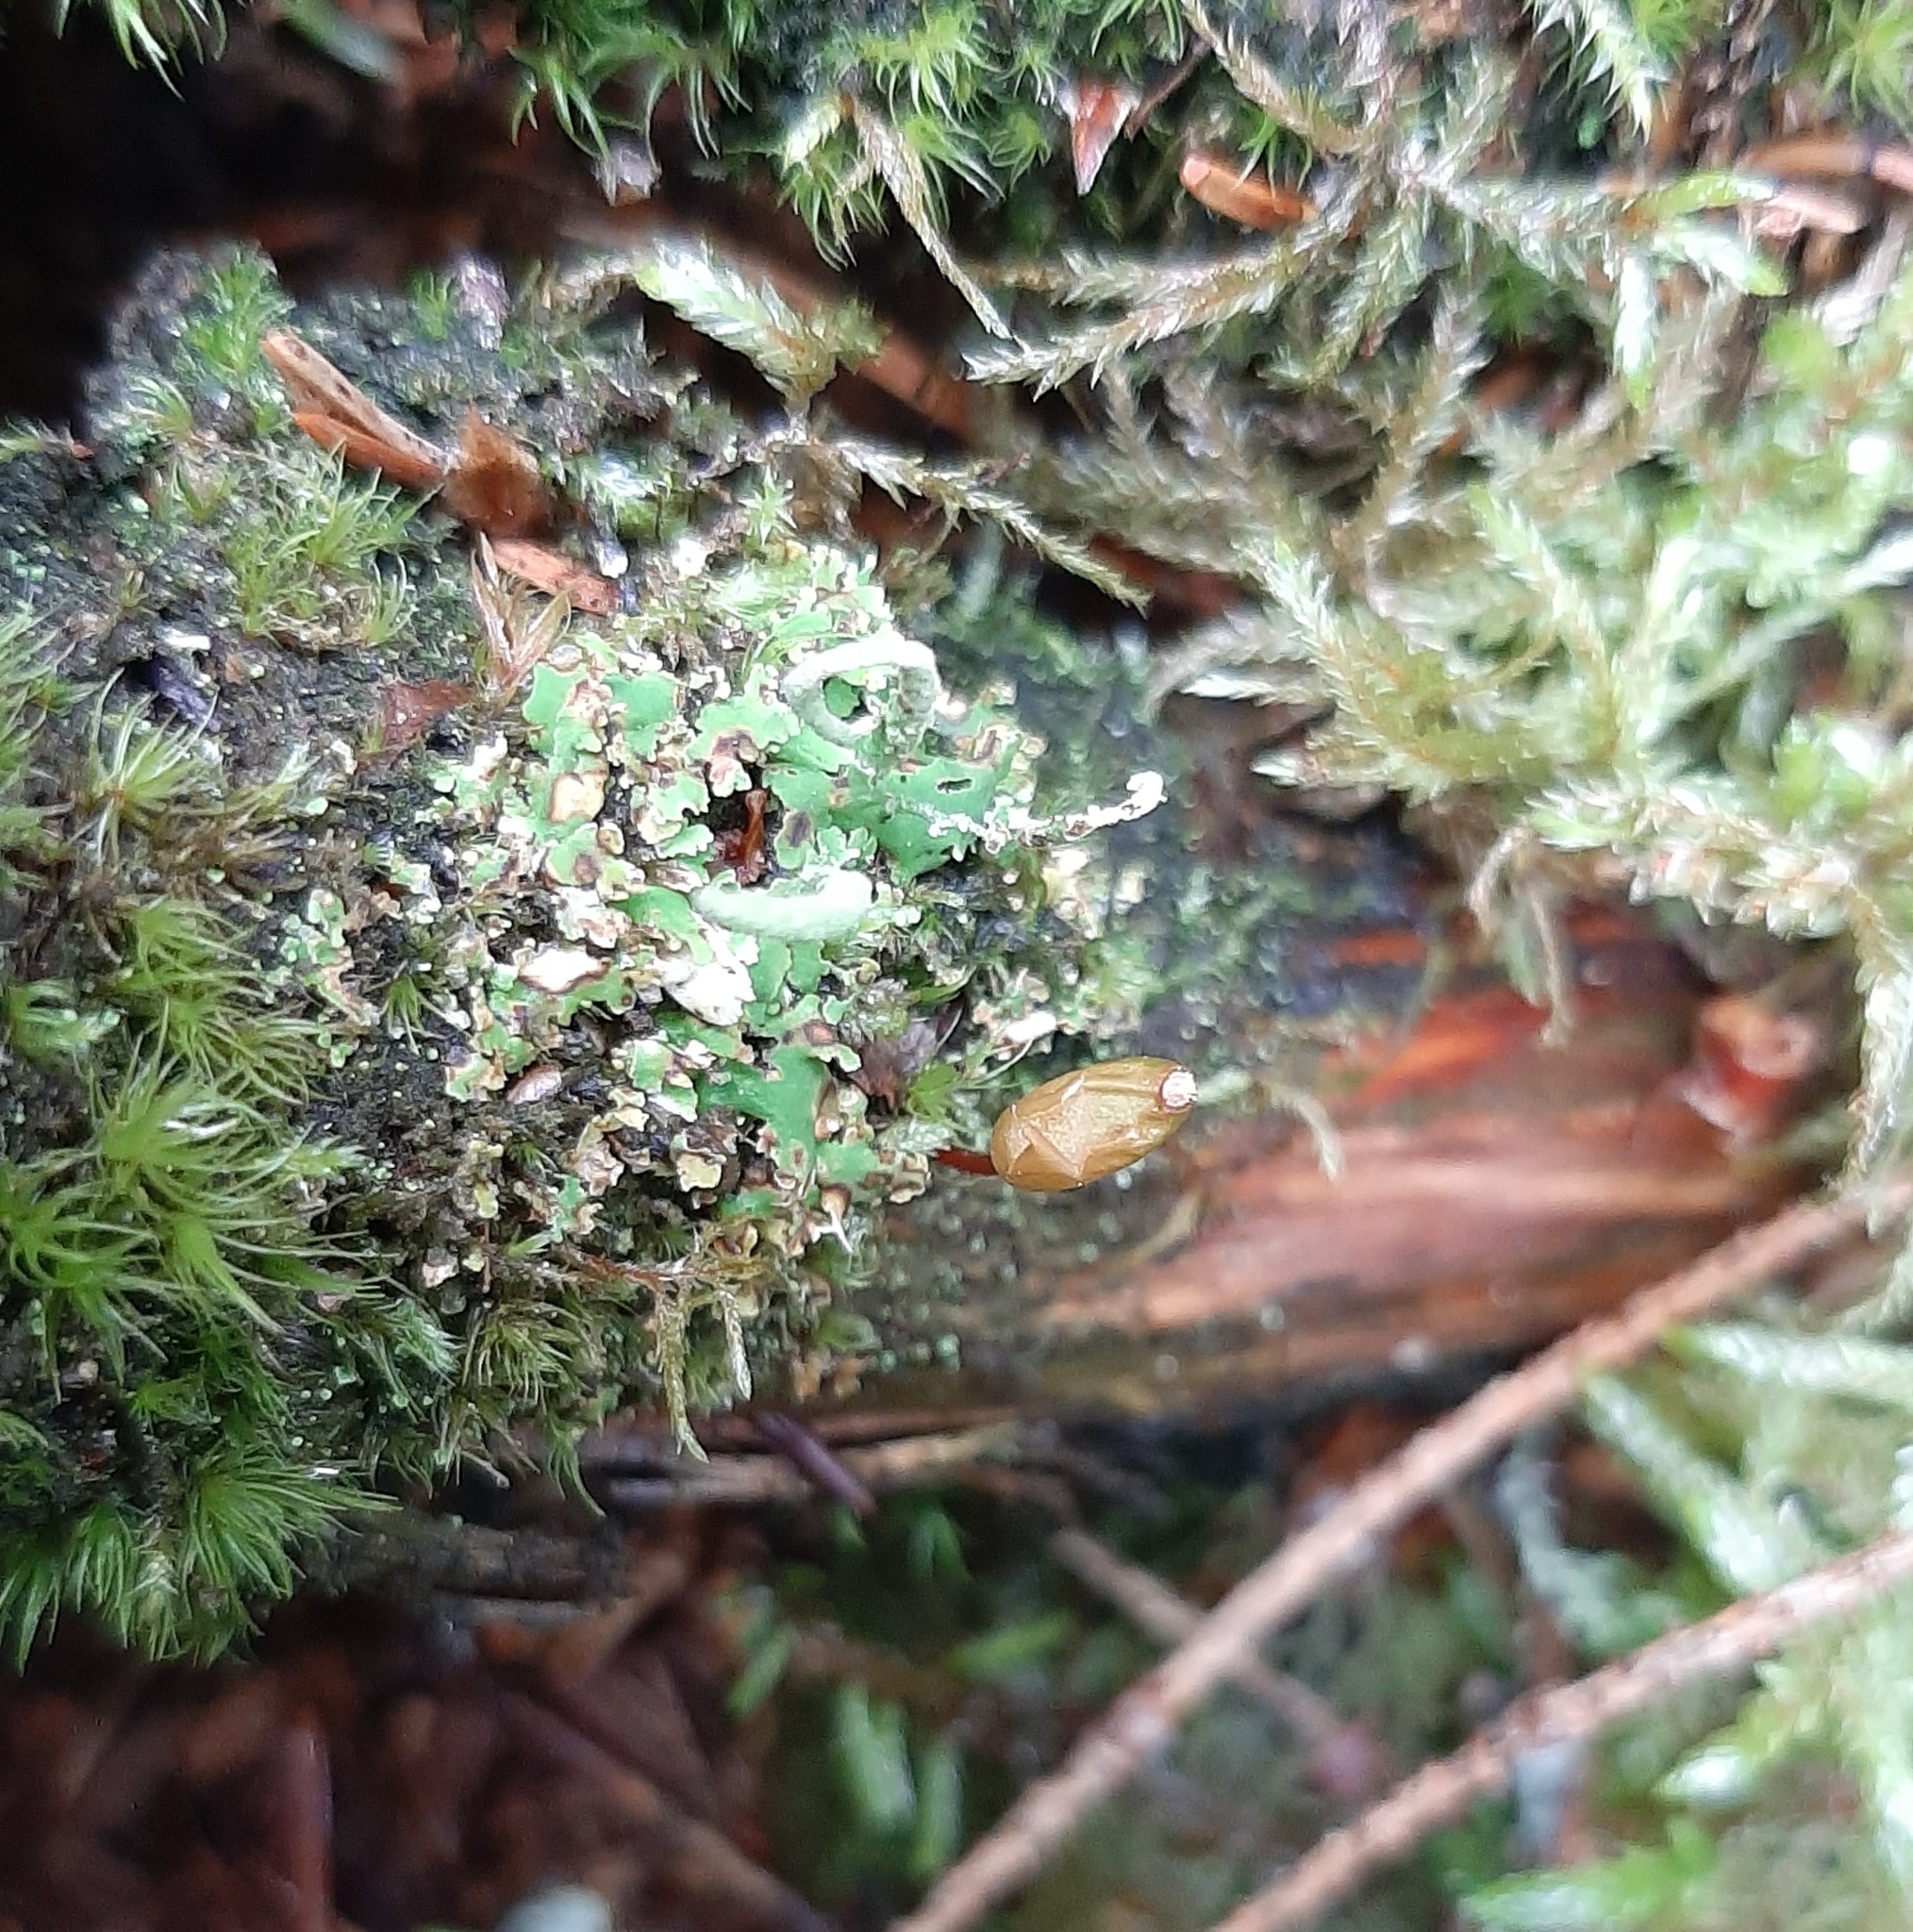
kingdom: Plantae
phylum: Bryophyta
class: Bryopsida
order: Buxbaumiales
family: Buxbaumiaceae
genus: Buxbaumia
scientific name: Buxbaumia viridis
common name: Green shield-moss
